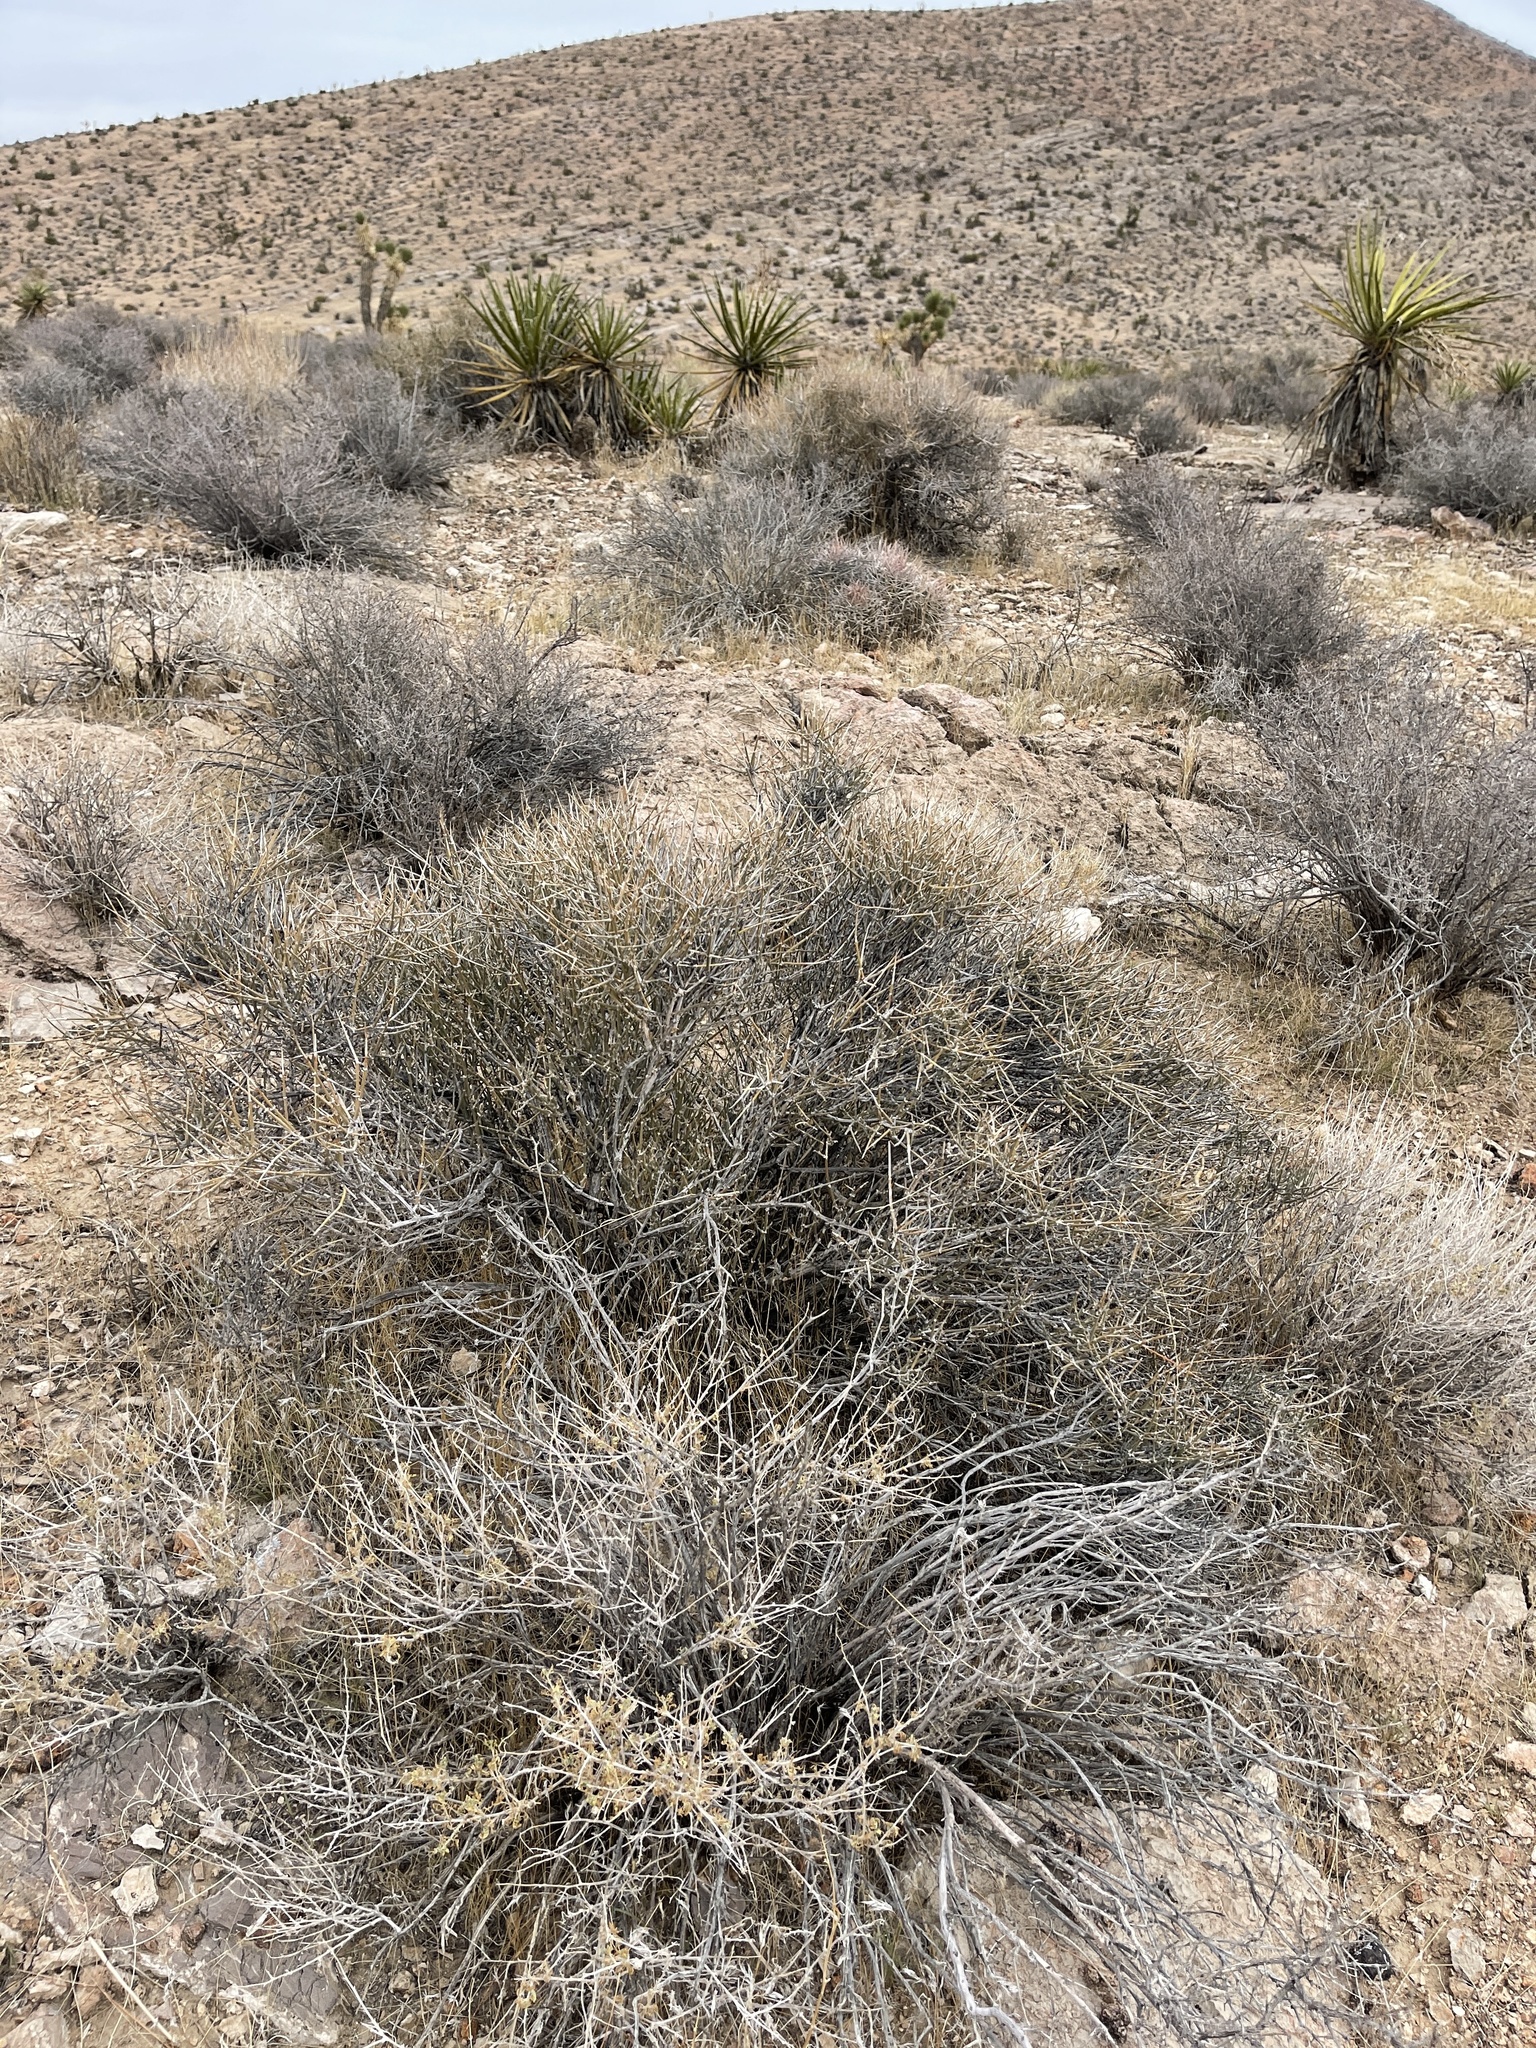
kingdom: Plantae
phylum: Tracheophyta
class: Gnetopsida
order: Ephedrales
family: Ephedraceae
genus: Ephedra
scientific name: Ephedra nevadensis
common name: Gray ephedra
